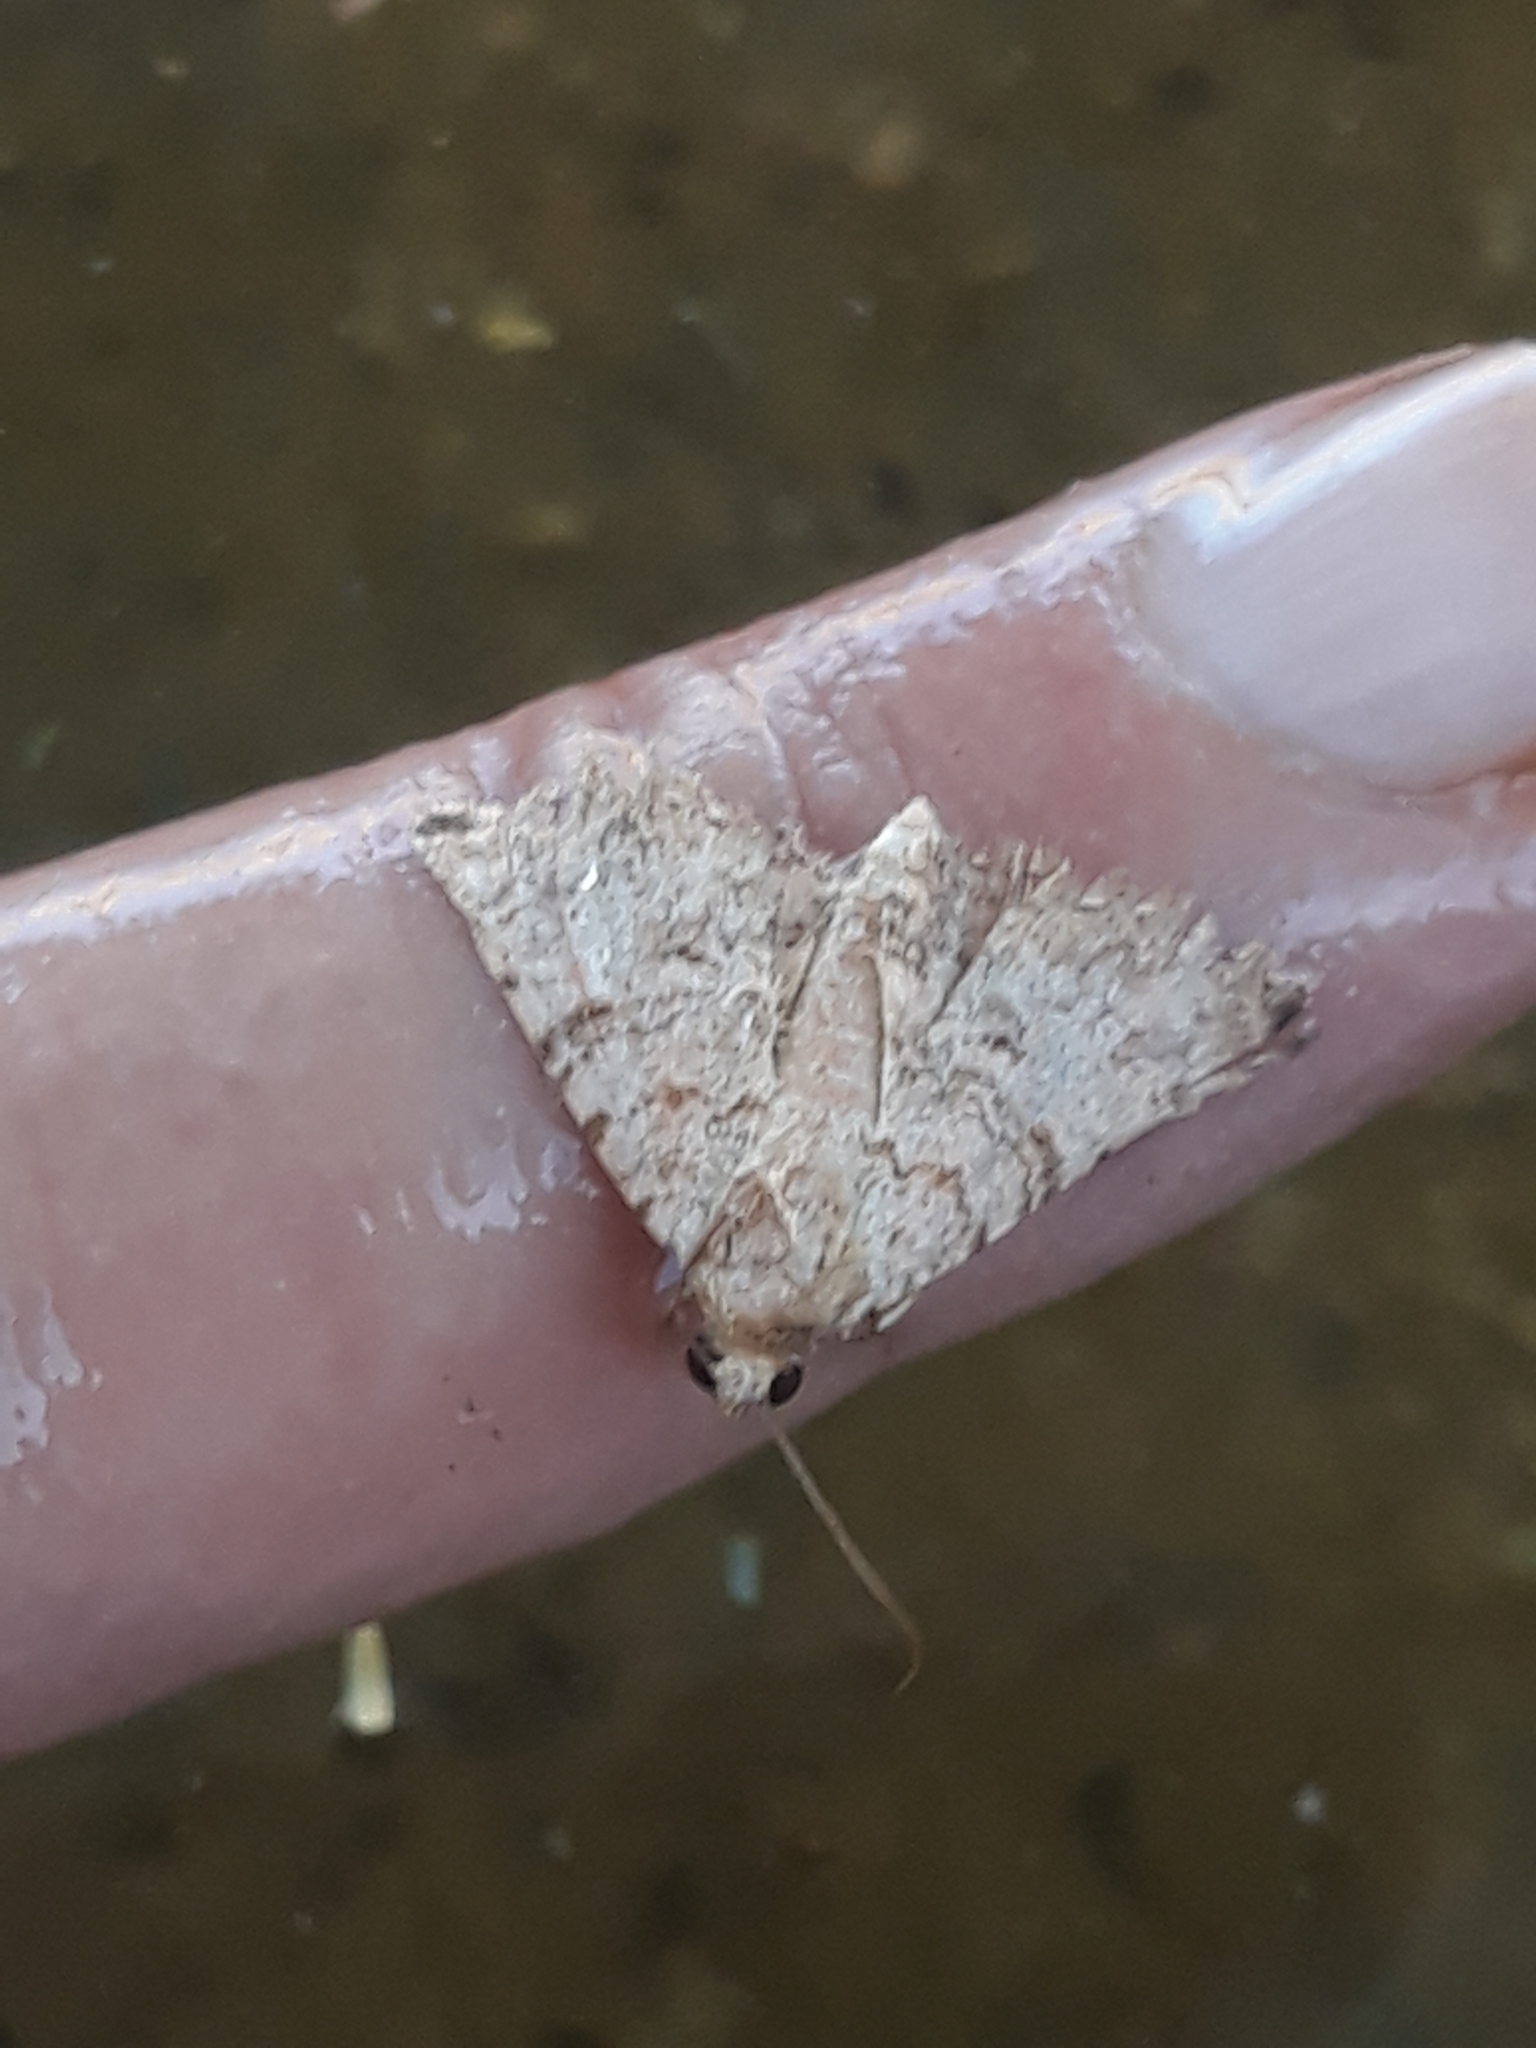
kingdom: Animalia
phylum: Arthropoda
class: Insecta
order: Lepidoptera
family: Erebidae
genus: Homaea
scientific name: Homaea
